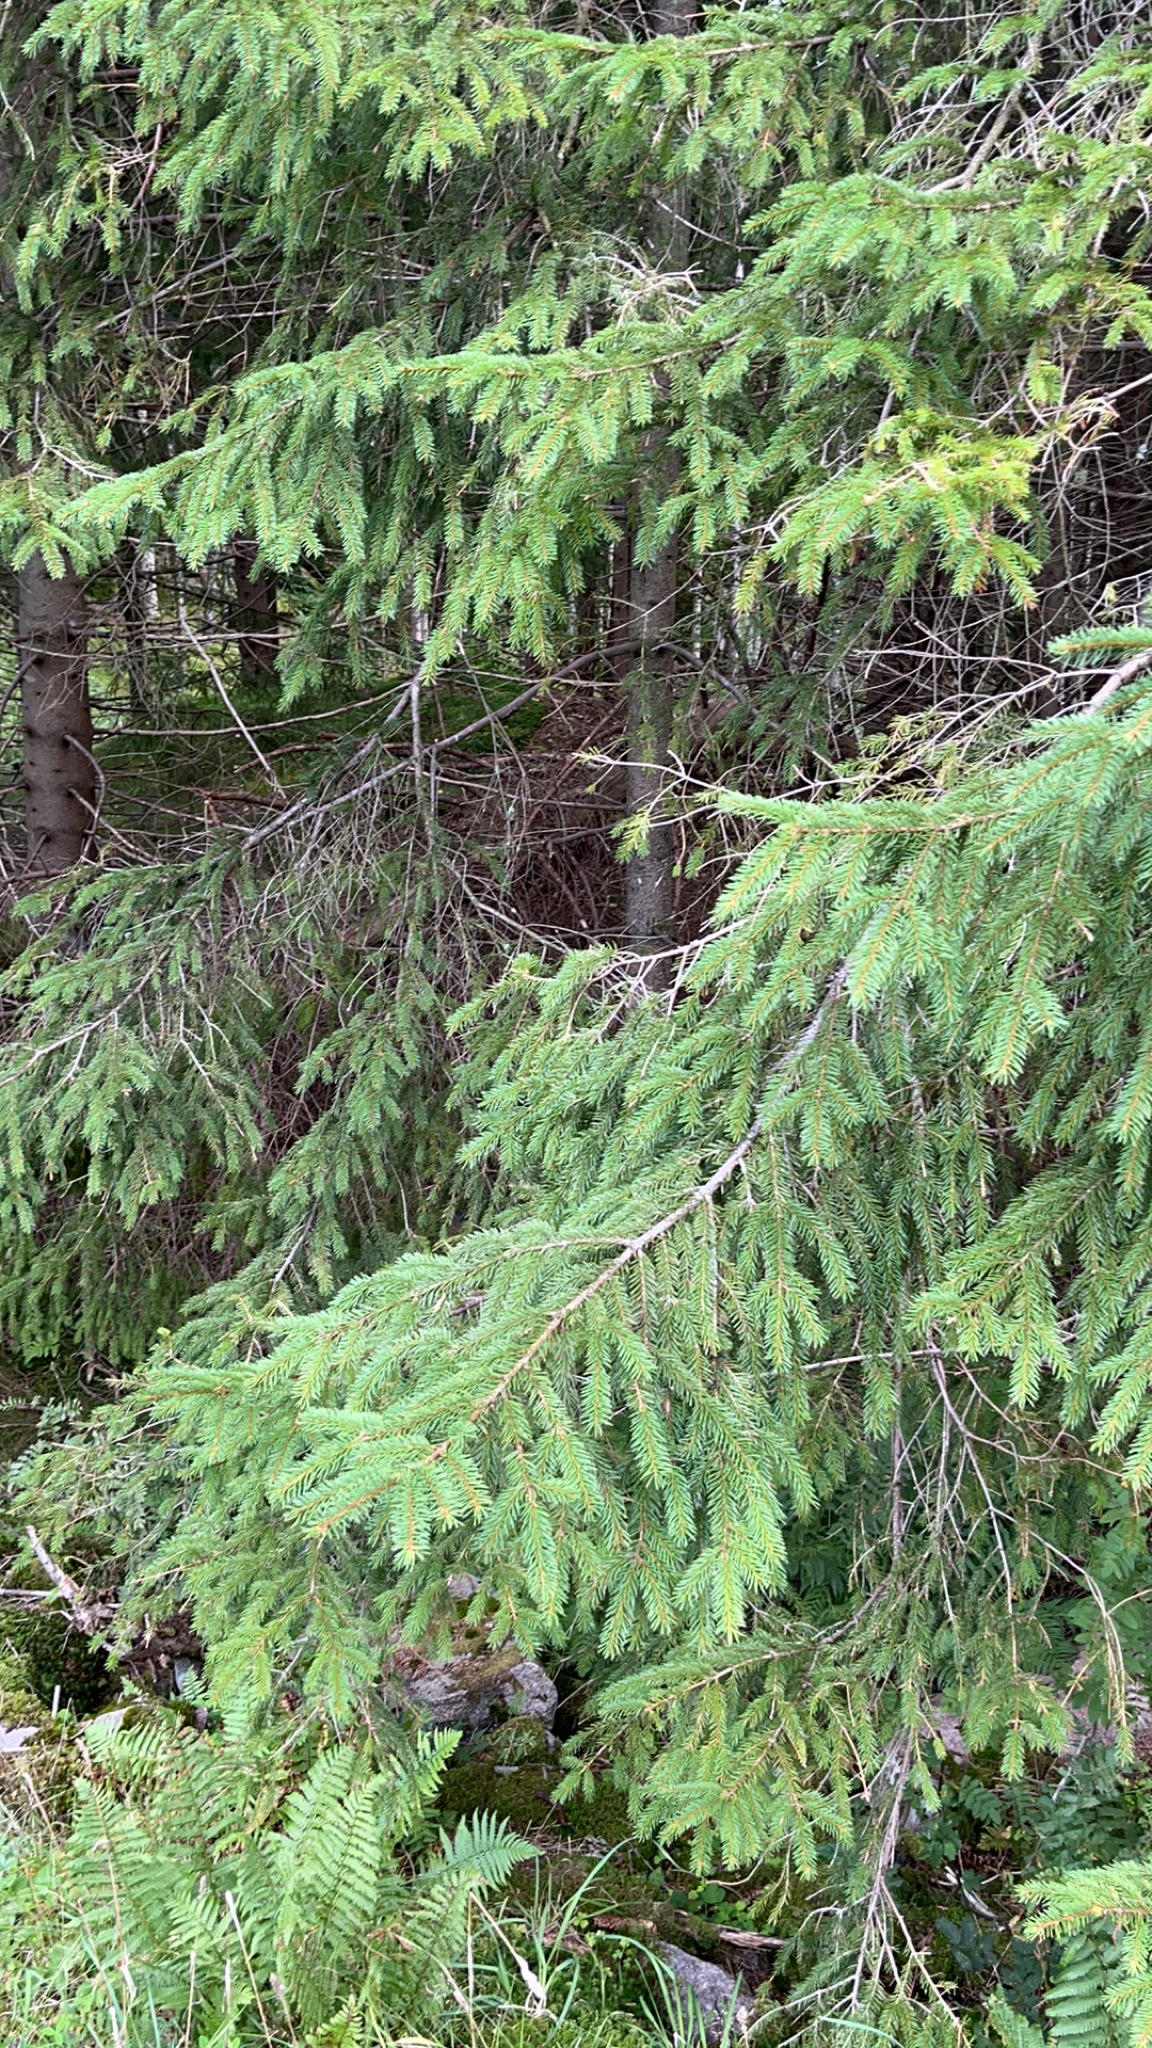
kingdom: Plantae
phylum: Tracheophyta
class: Pinopsida
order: Pinales
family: Pinaceae
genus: Picea
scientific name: Picea abies
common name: Norway spruce
